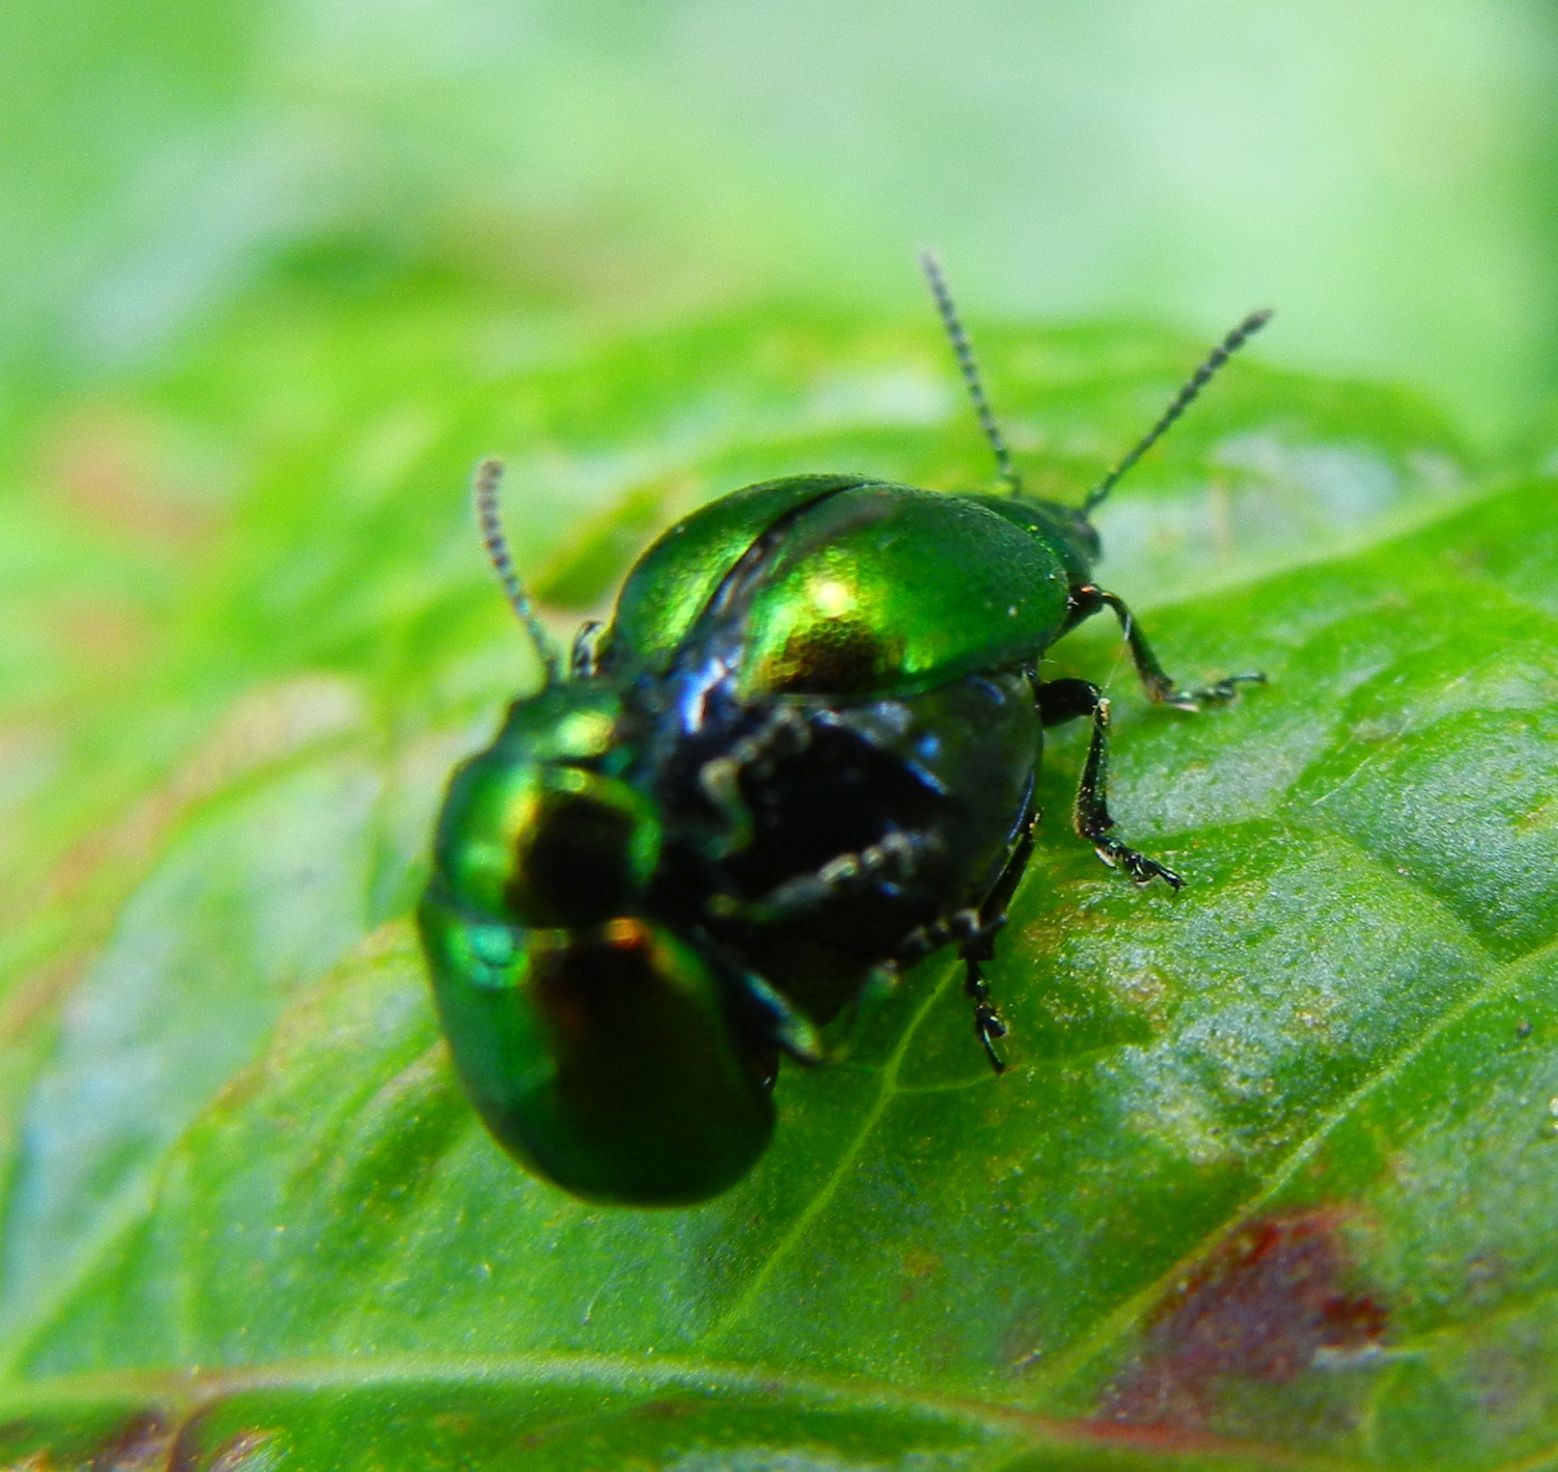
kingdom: Animalia
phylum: Arthropoda
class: Insecta
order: Coleoptera
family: Chrysomelidae
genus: Gastrophysa
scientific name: Gastrophysa viridula
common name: Green dock beetle
